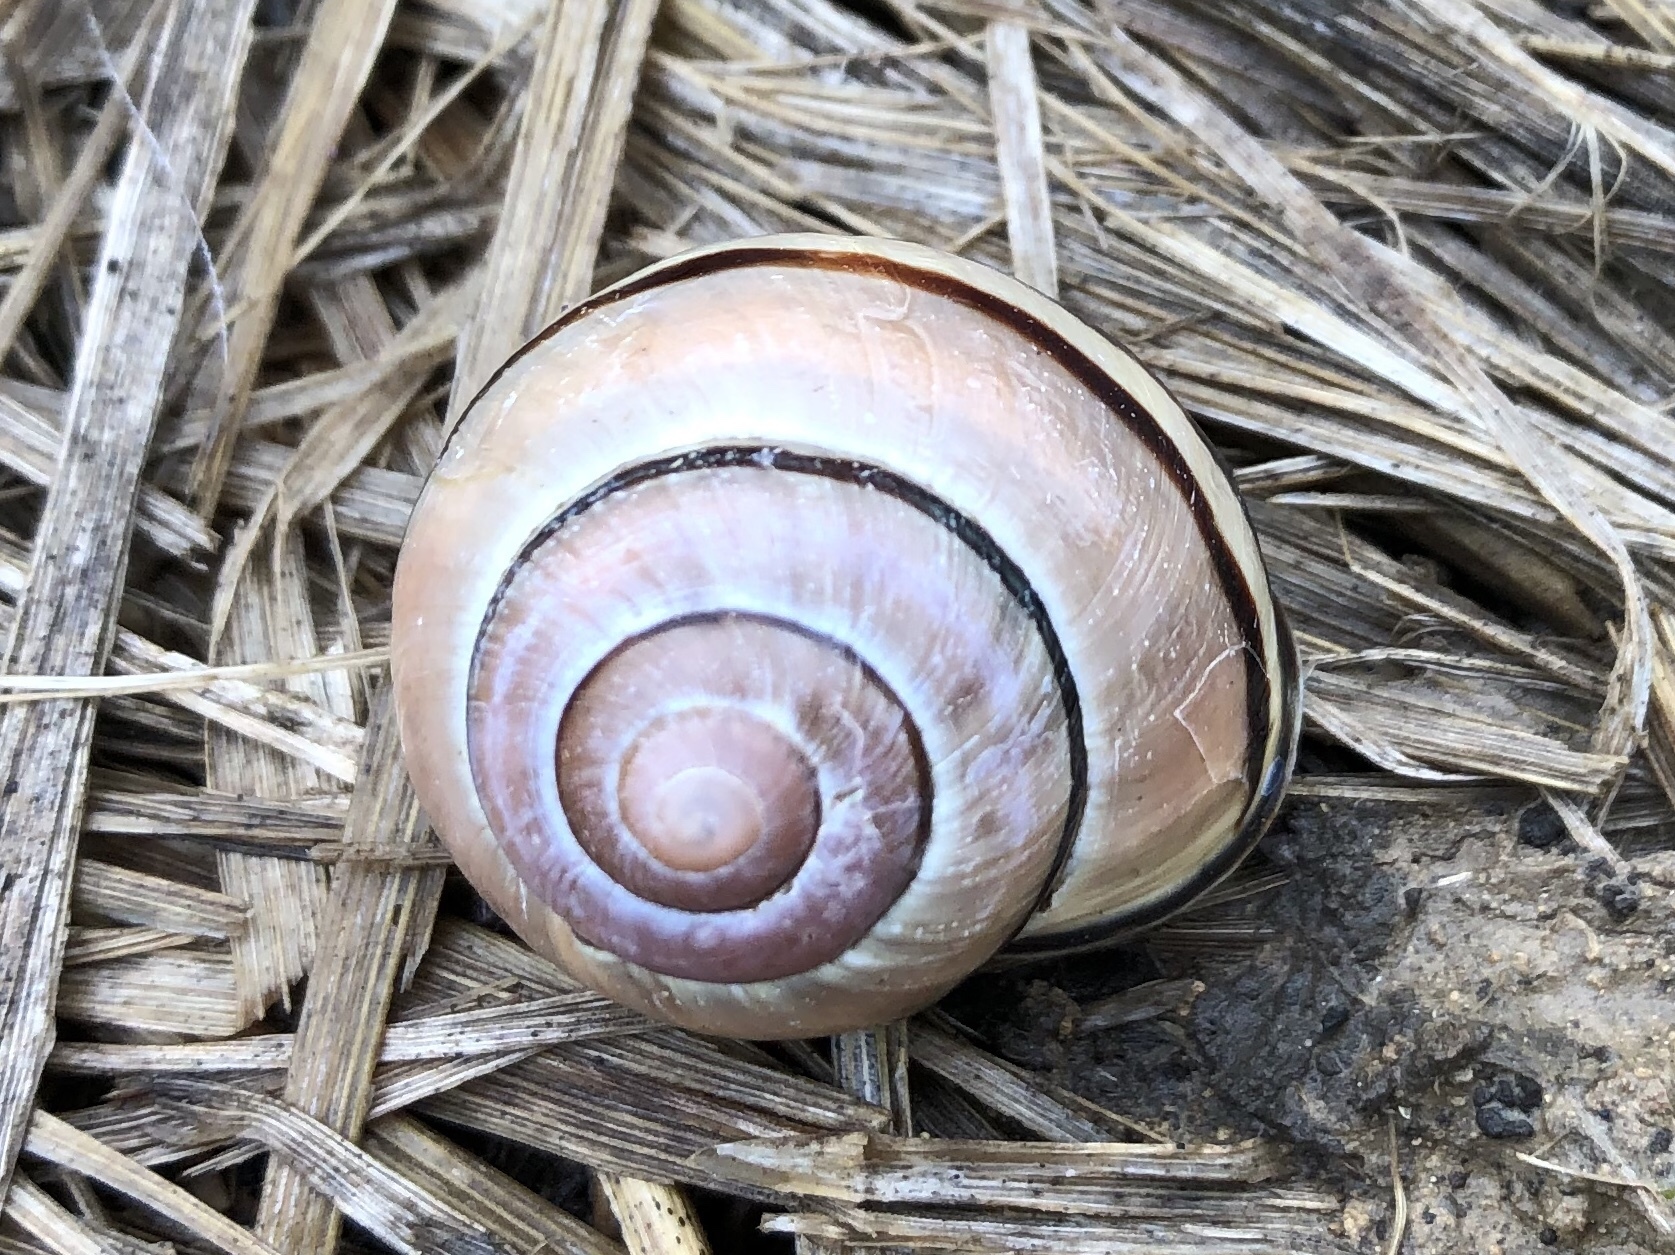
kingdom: Animalia
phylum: Mollusca
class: Gastropoda
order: Stylommatophora
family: Helicidae
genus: Cepaea
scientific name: Cepaea nemoralis
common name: Grovesnail
